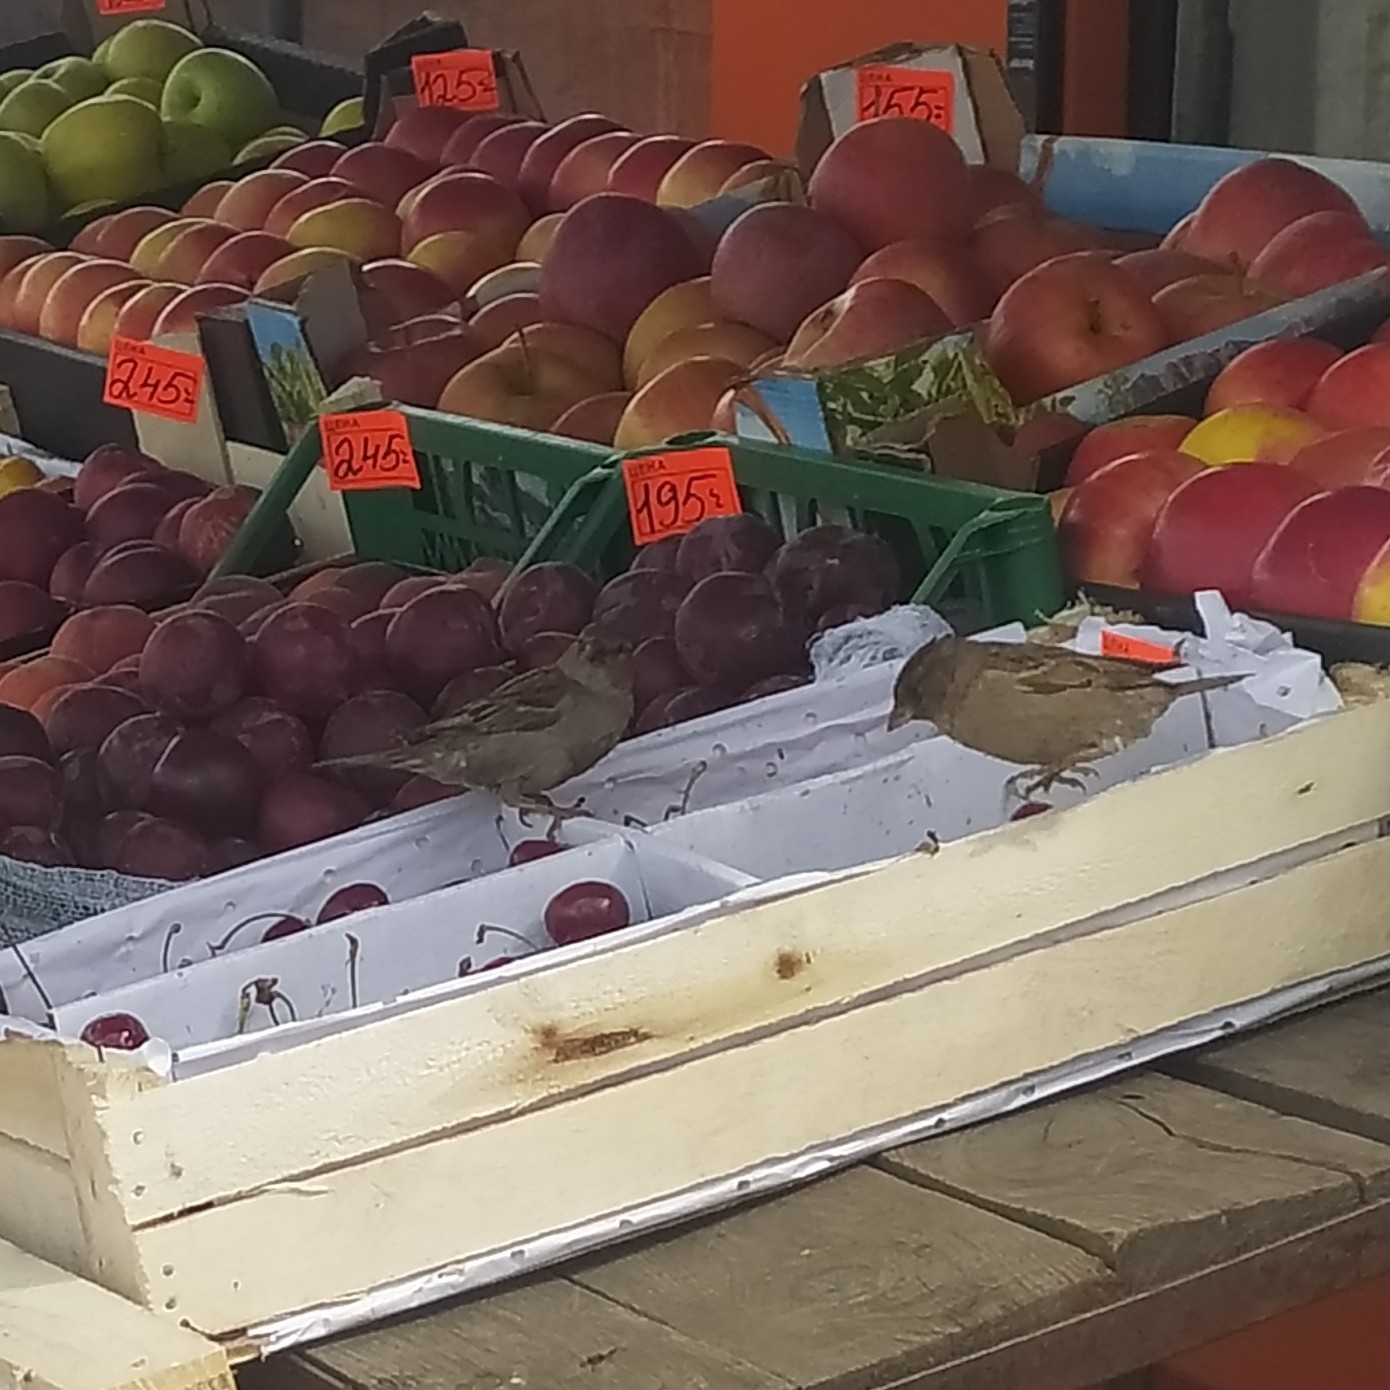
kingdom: Animalia
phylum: Chordata
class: Aves
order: Passeriformes
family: Passeridae
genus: Passer
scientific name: Passer domesticus
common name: House sparrow
